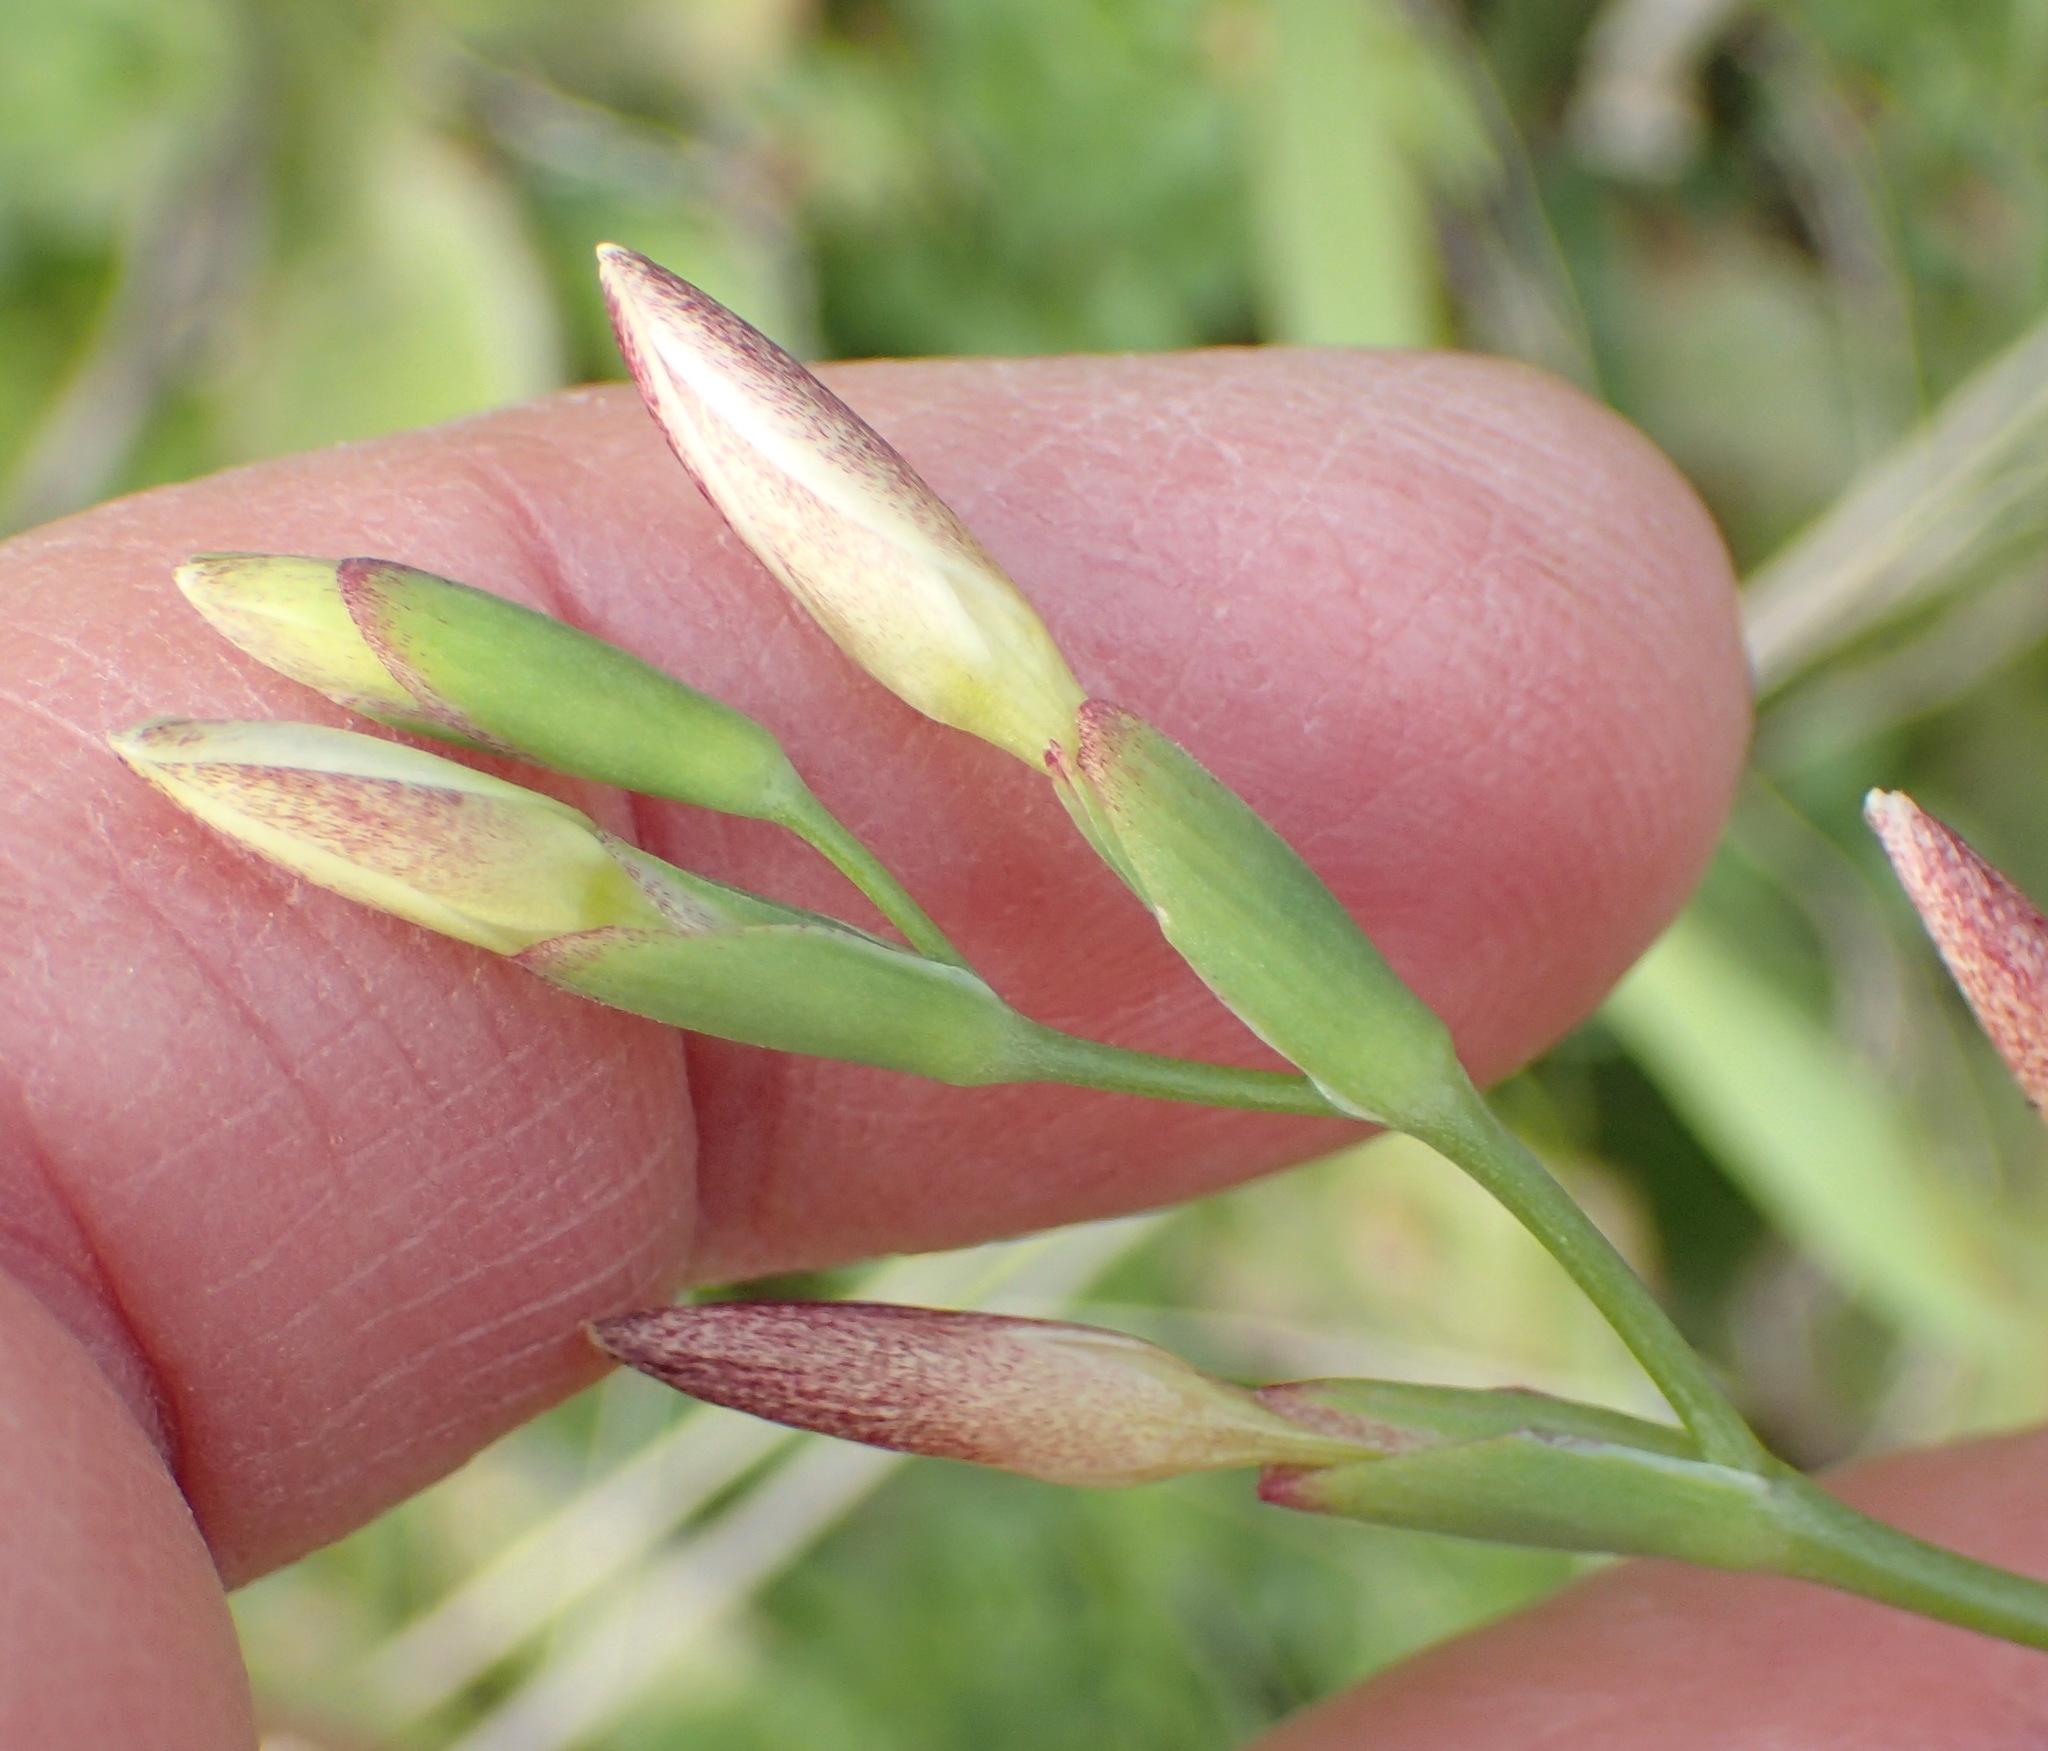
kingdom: Plantae
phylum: Tracheophyta
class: Liliopsida
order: Asparagales
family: Iridaceae
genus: Hesperantha
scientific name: Hesperantha falcata
